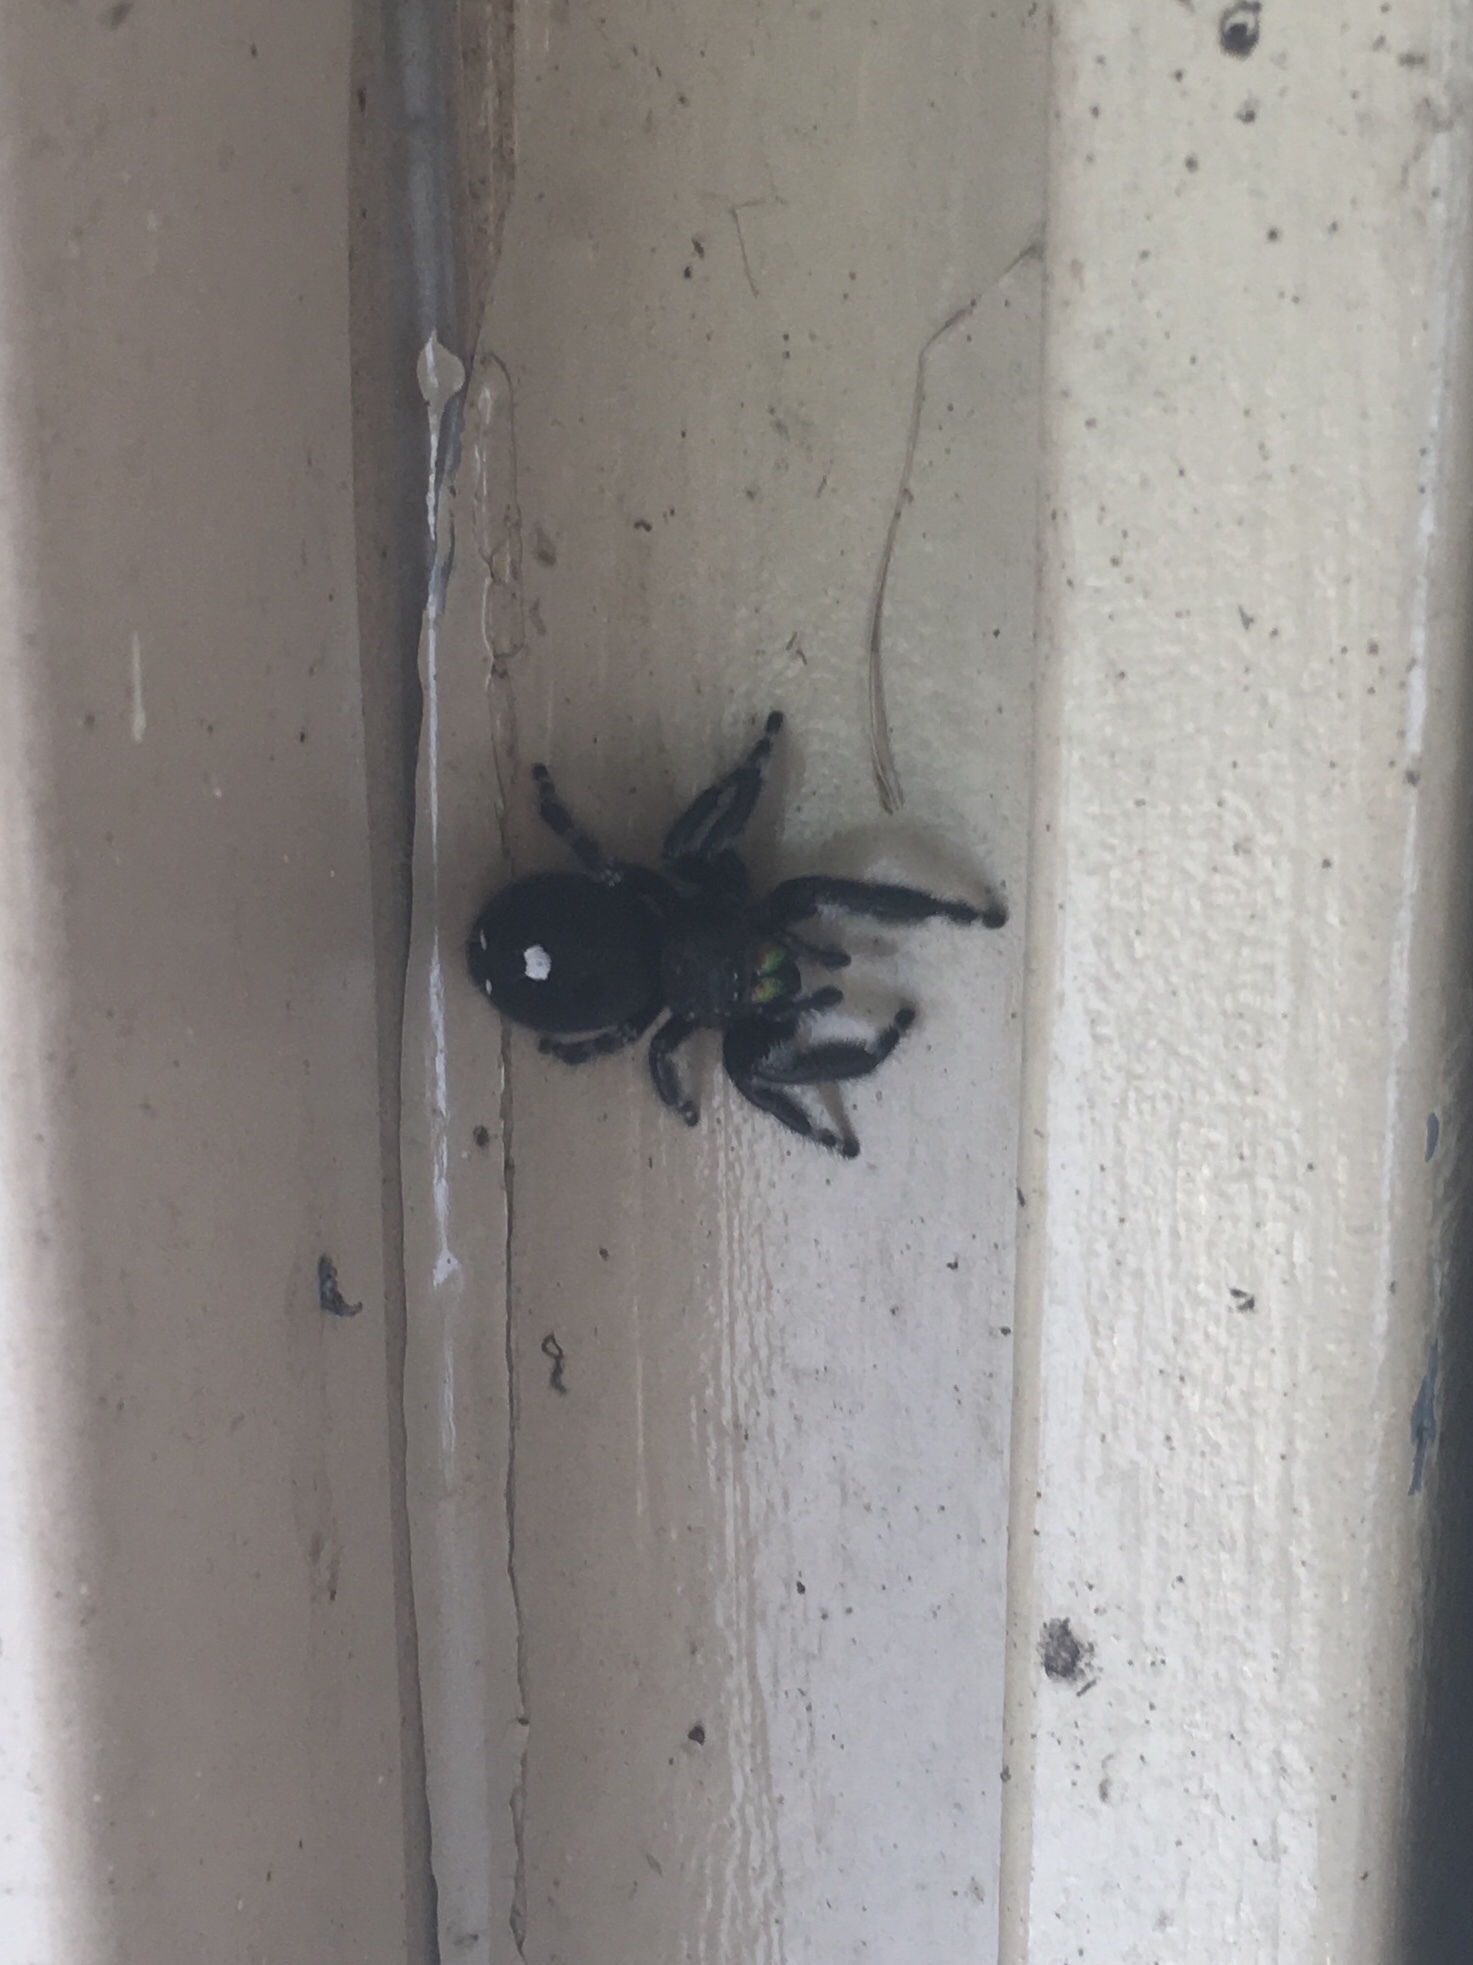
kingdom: Animalia
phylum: Arthropoda
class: Arachnida
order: Araneae
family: Salticidae
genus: Phidippus
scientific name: Phidippus audax
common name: Bold jumper
